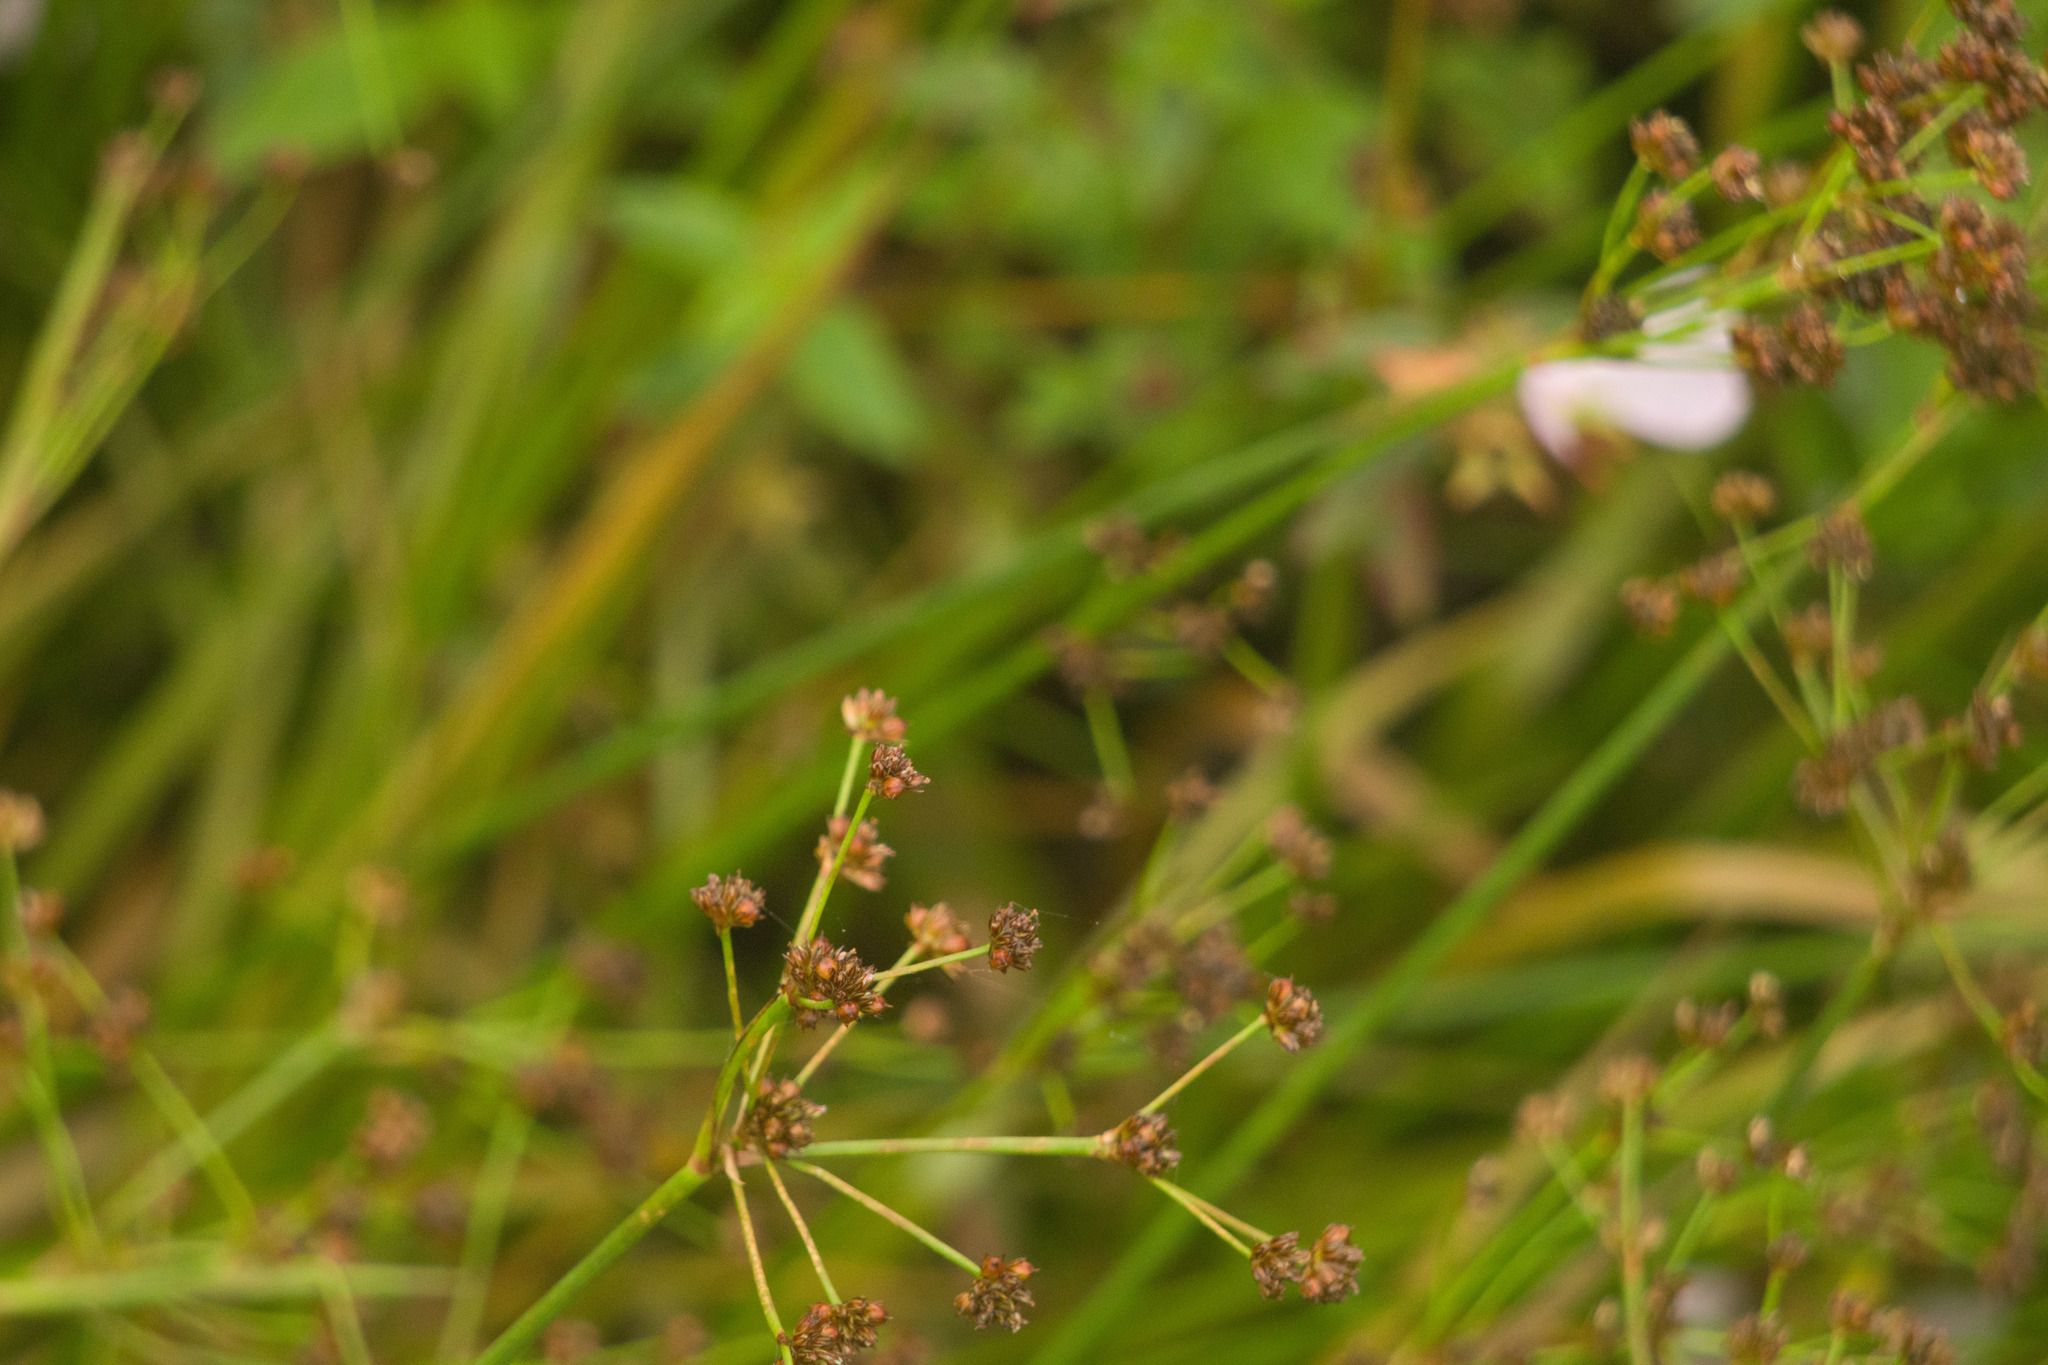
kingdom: Plantae
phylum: Tracheophyta
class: Liliopsida
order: Poales
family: Juncaceae
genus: Juncus
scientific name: Juncus planifolius
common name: Broadleaf rush
